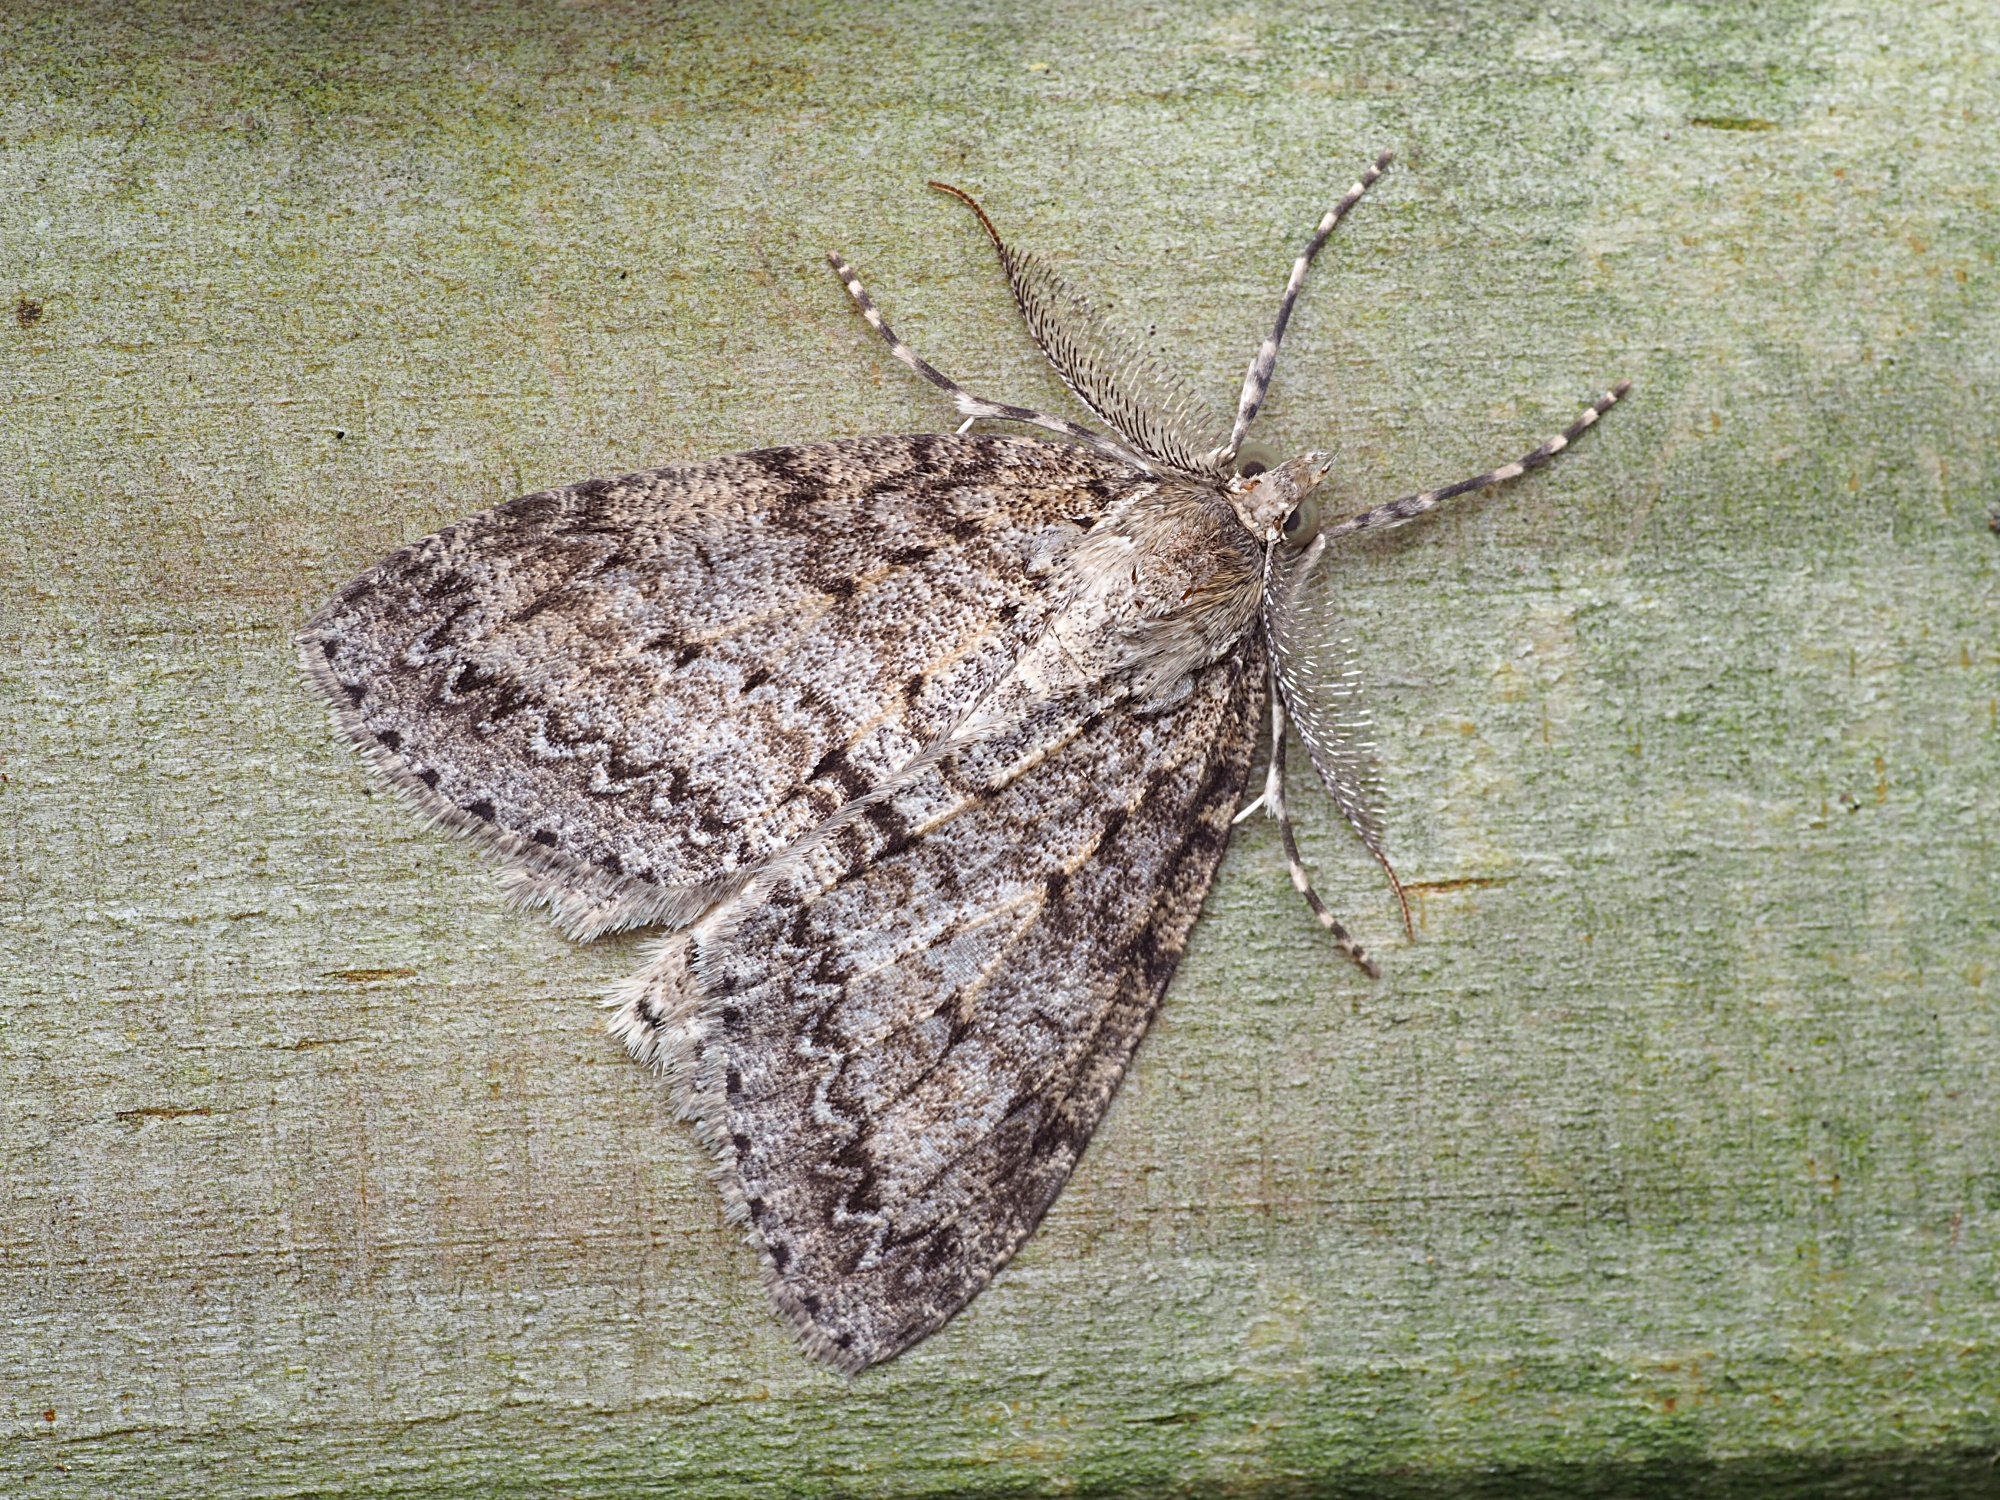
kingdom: Animalia
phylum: Arthropoda
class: Insecta
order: Lepidoptera
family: Geometridae
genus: Pseudocoremia
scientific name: Pseudocoremia fenerata
